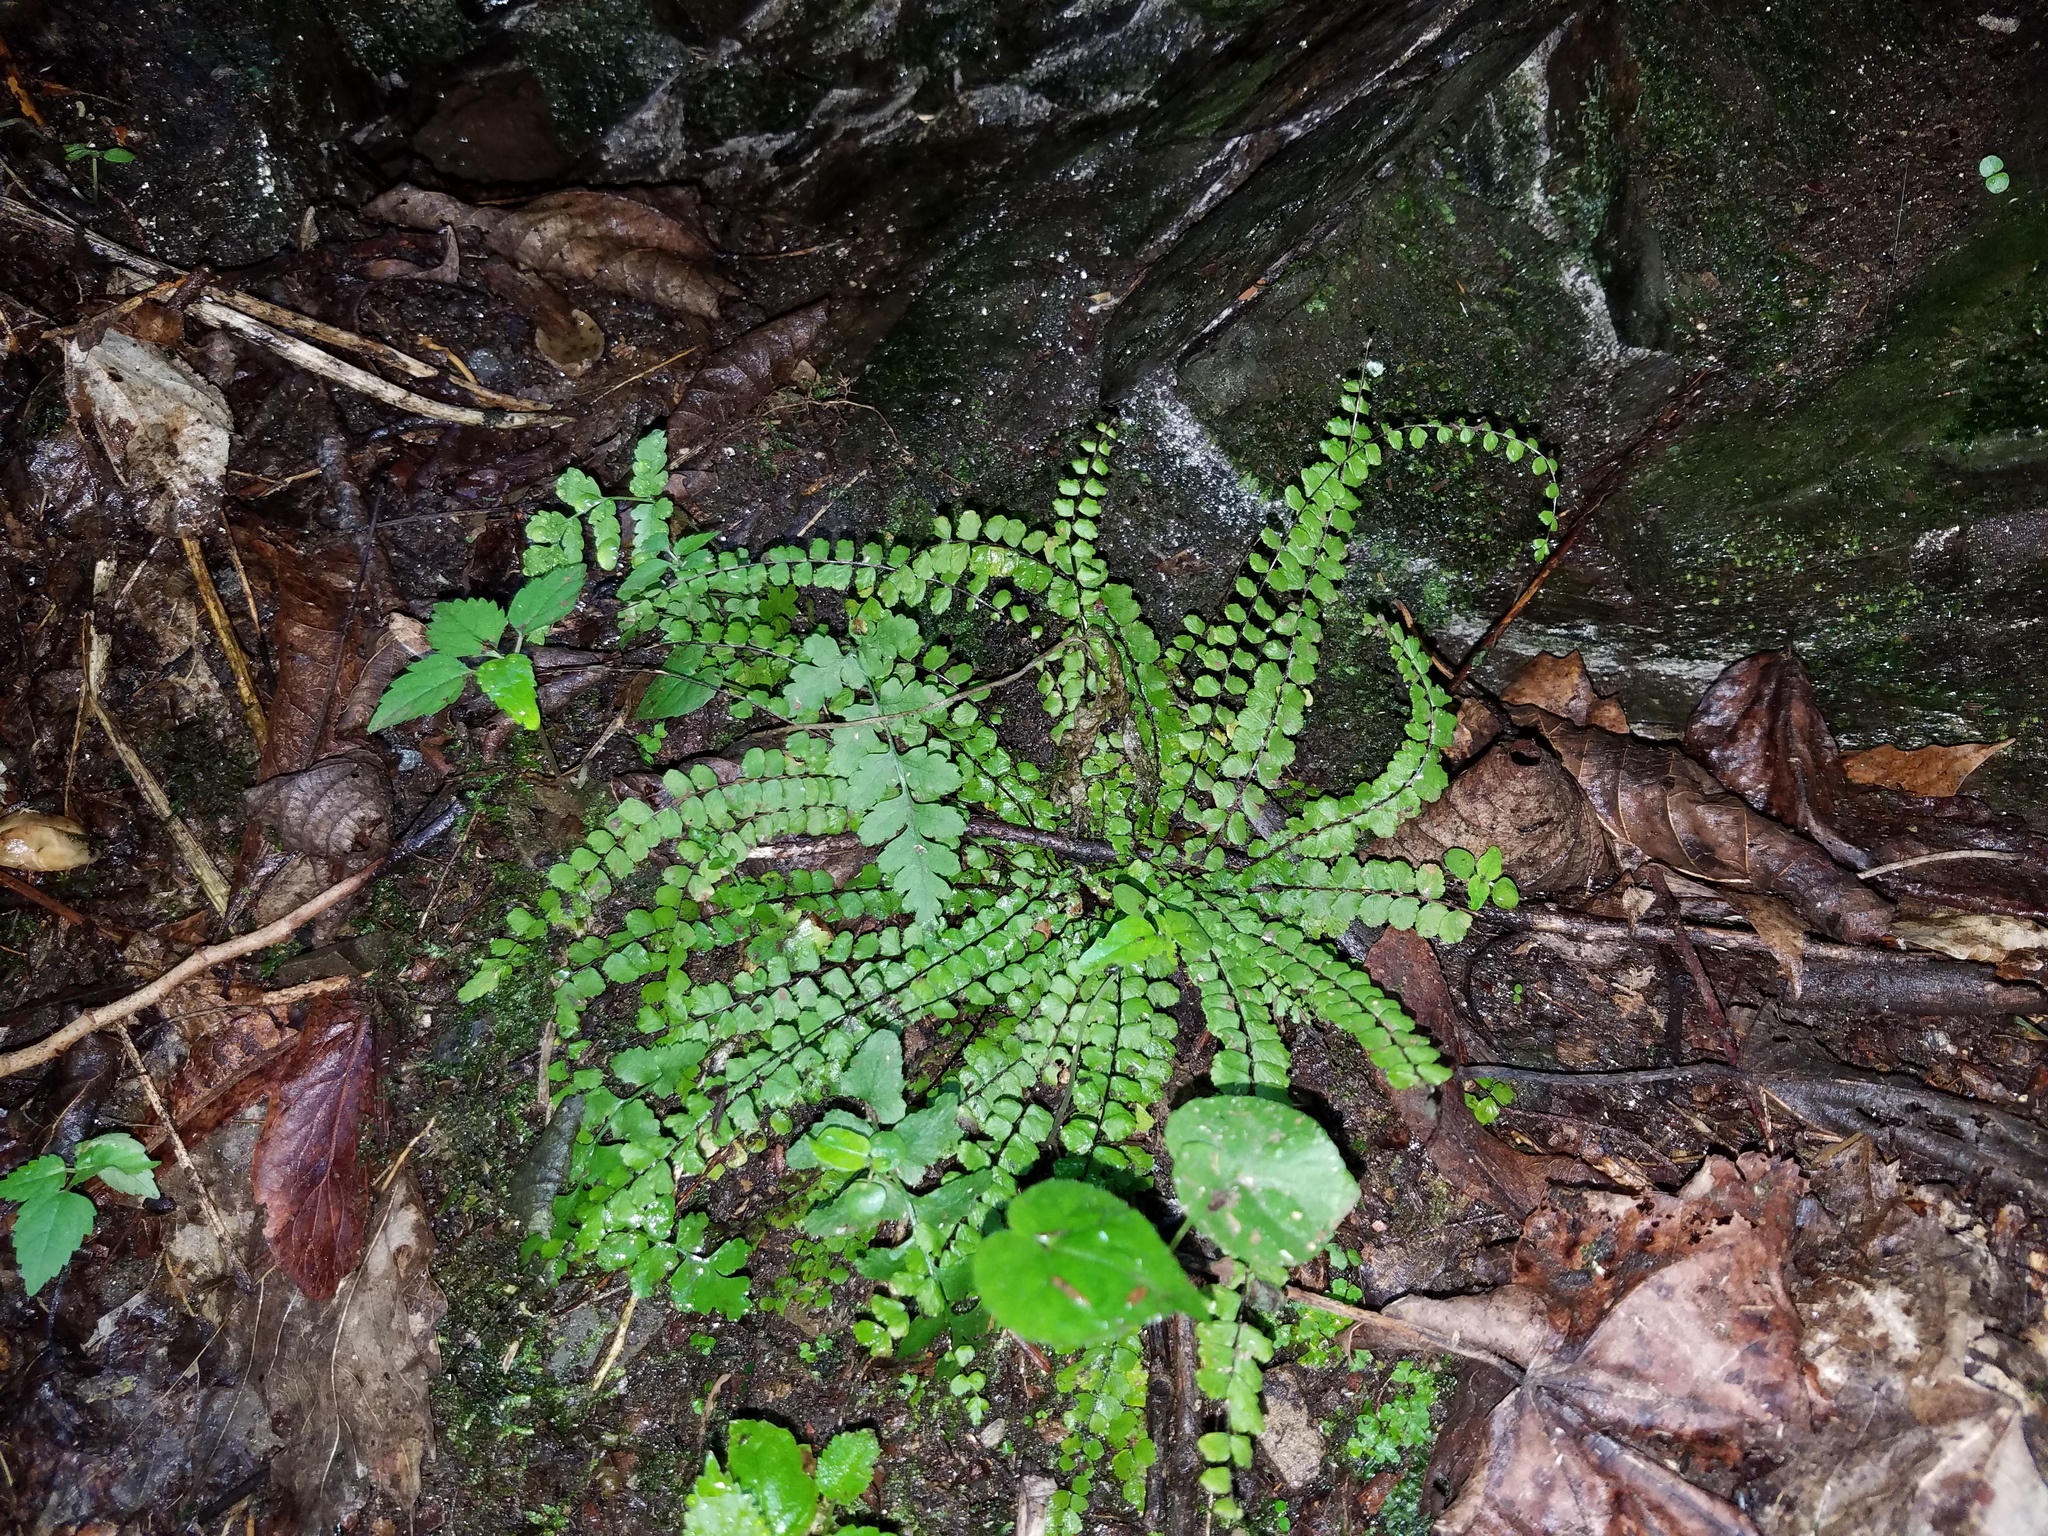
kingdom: Plantae
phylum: Tracheophyta
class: Polypodiopsida
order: Polypodiales
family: Aspleniaceae
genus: Asplenium
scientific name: Asplenium trichomanes
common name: Maidenhair spleenwort
